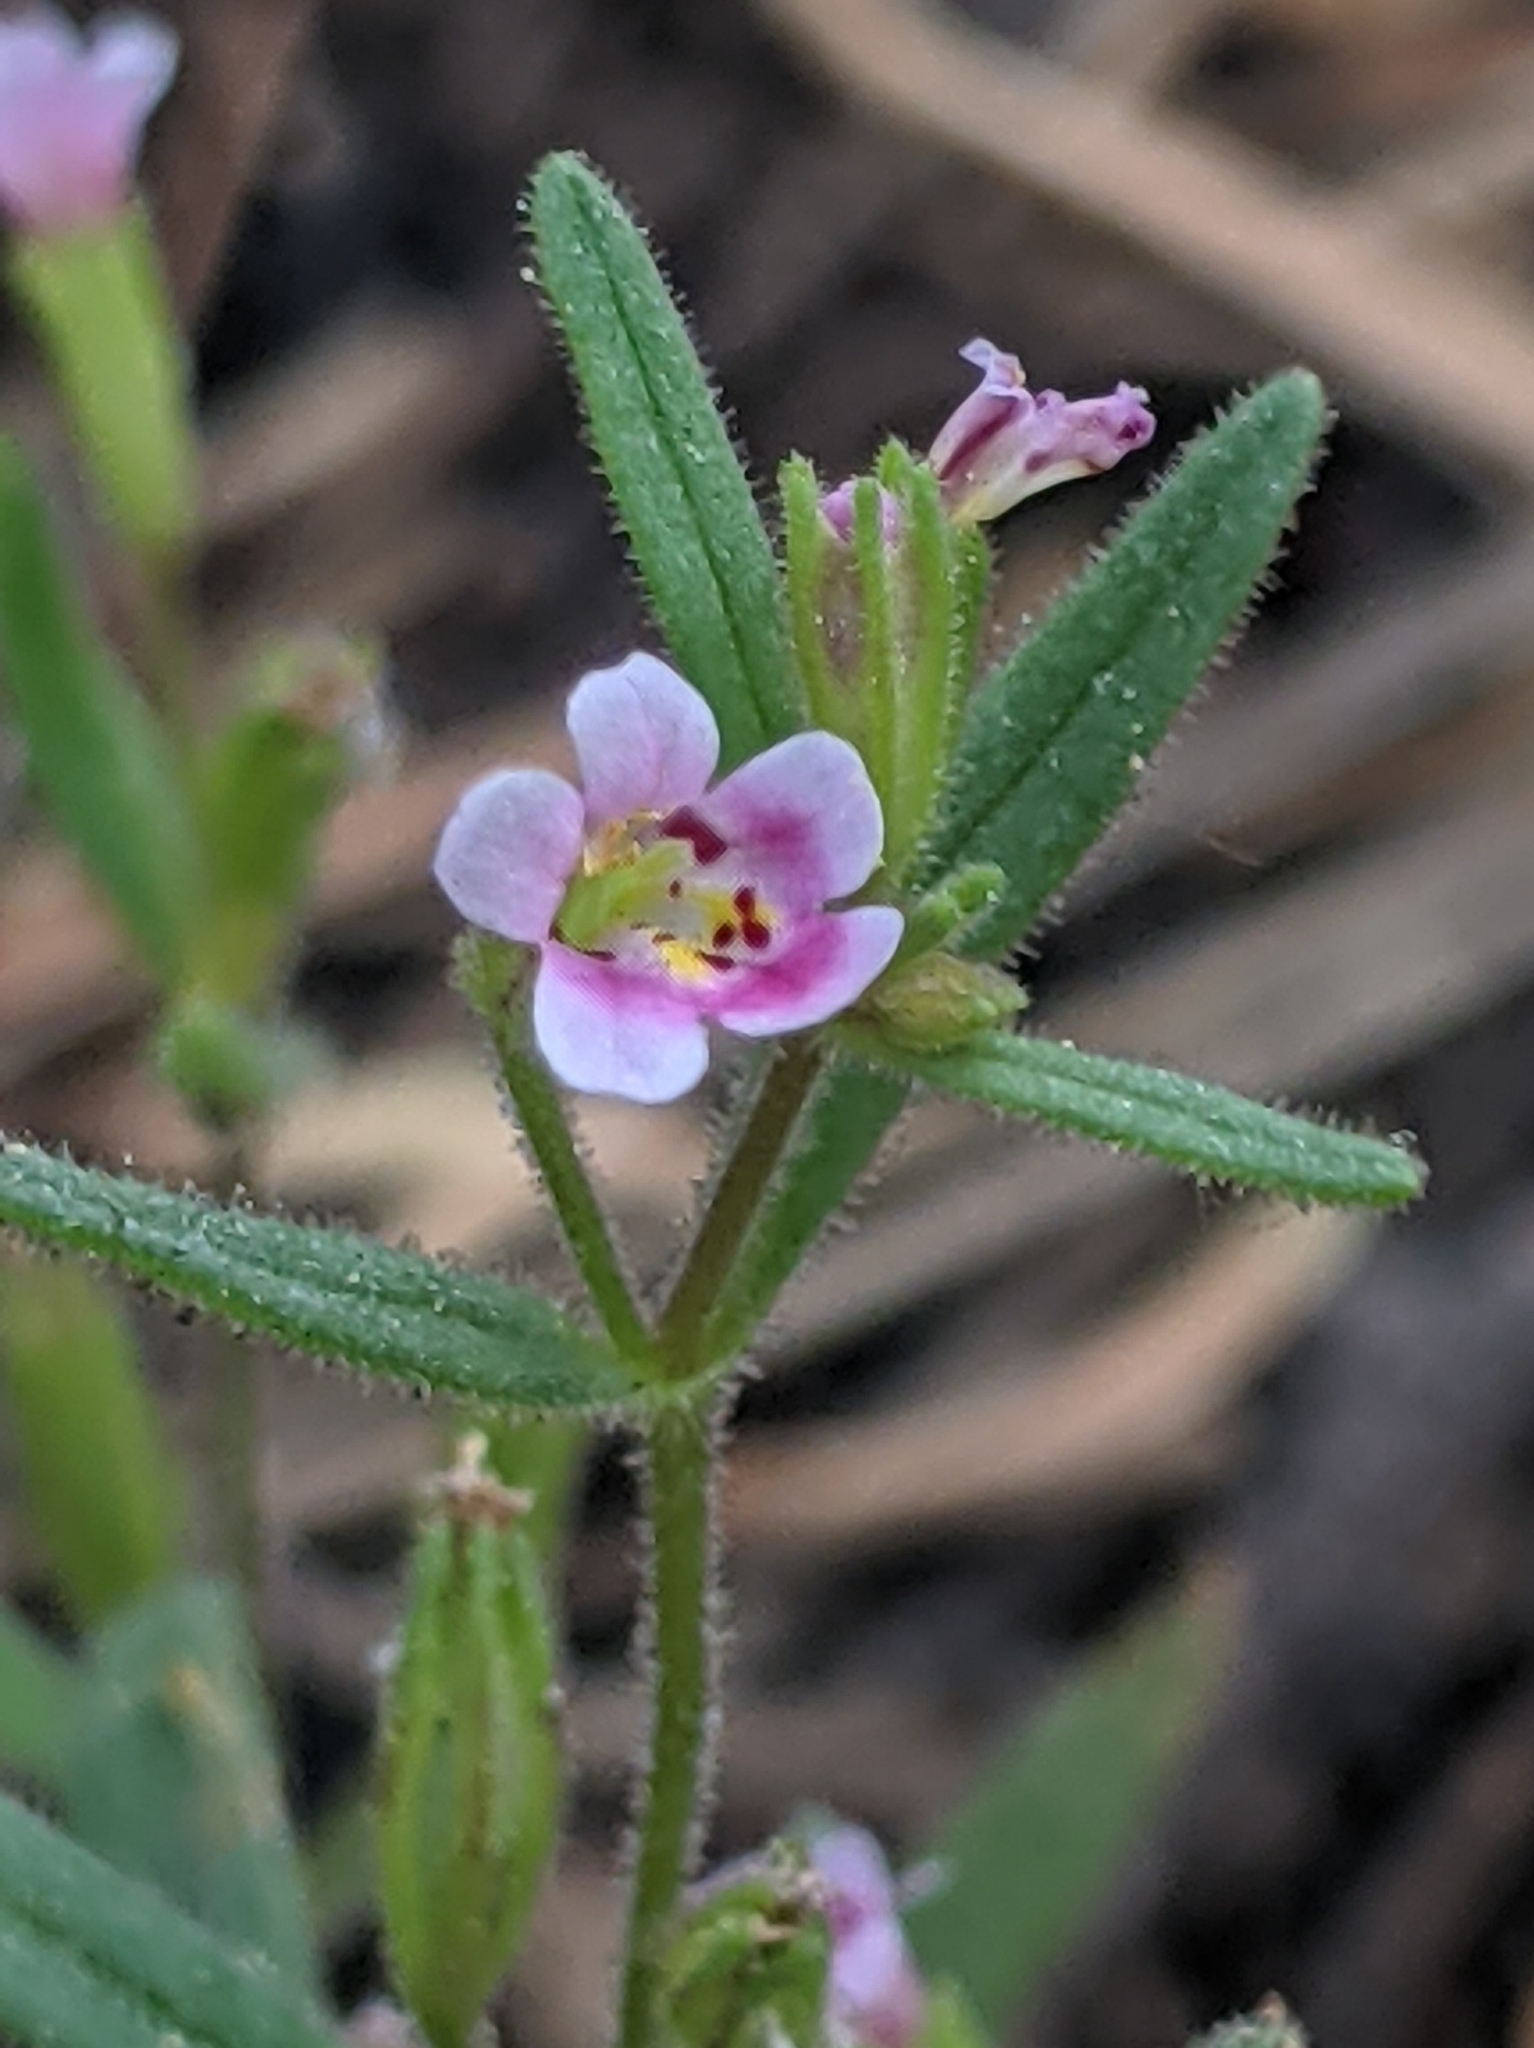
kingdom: Plantae
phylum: Tracheophyta
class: Magnoliopsida
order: Lamiales
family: Phrymaceae
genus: Erythranthe
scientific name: Erythranthe breweri
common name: Brewer's monkeyflower
